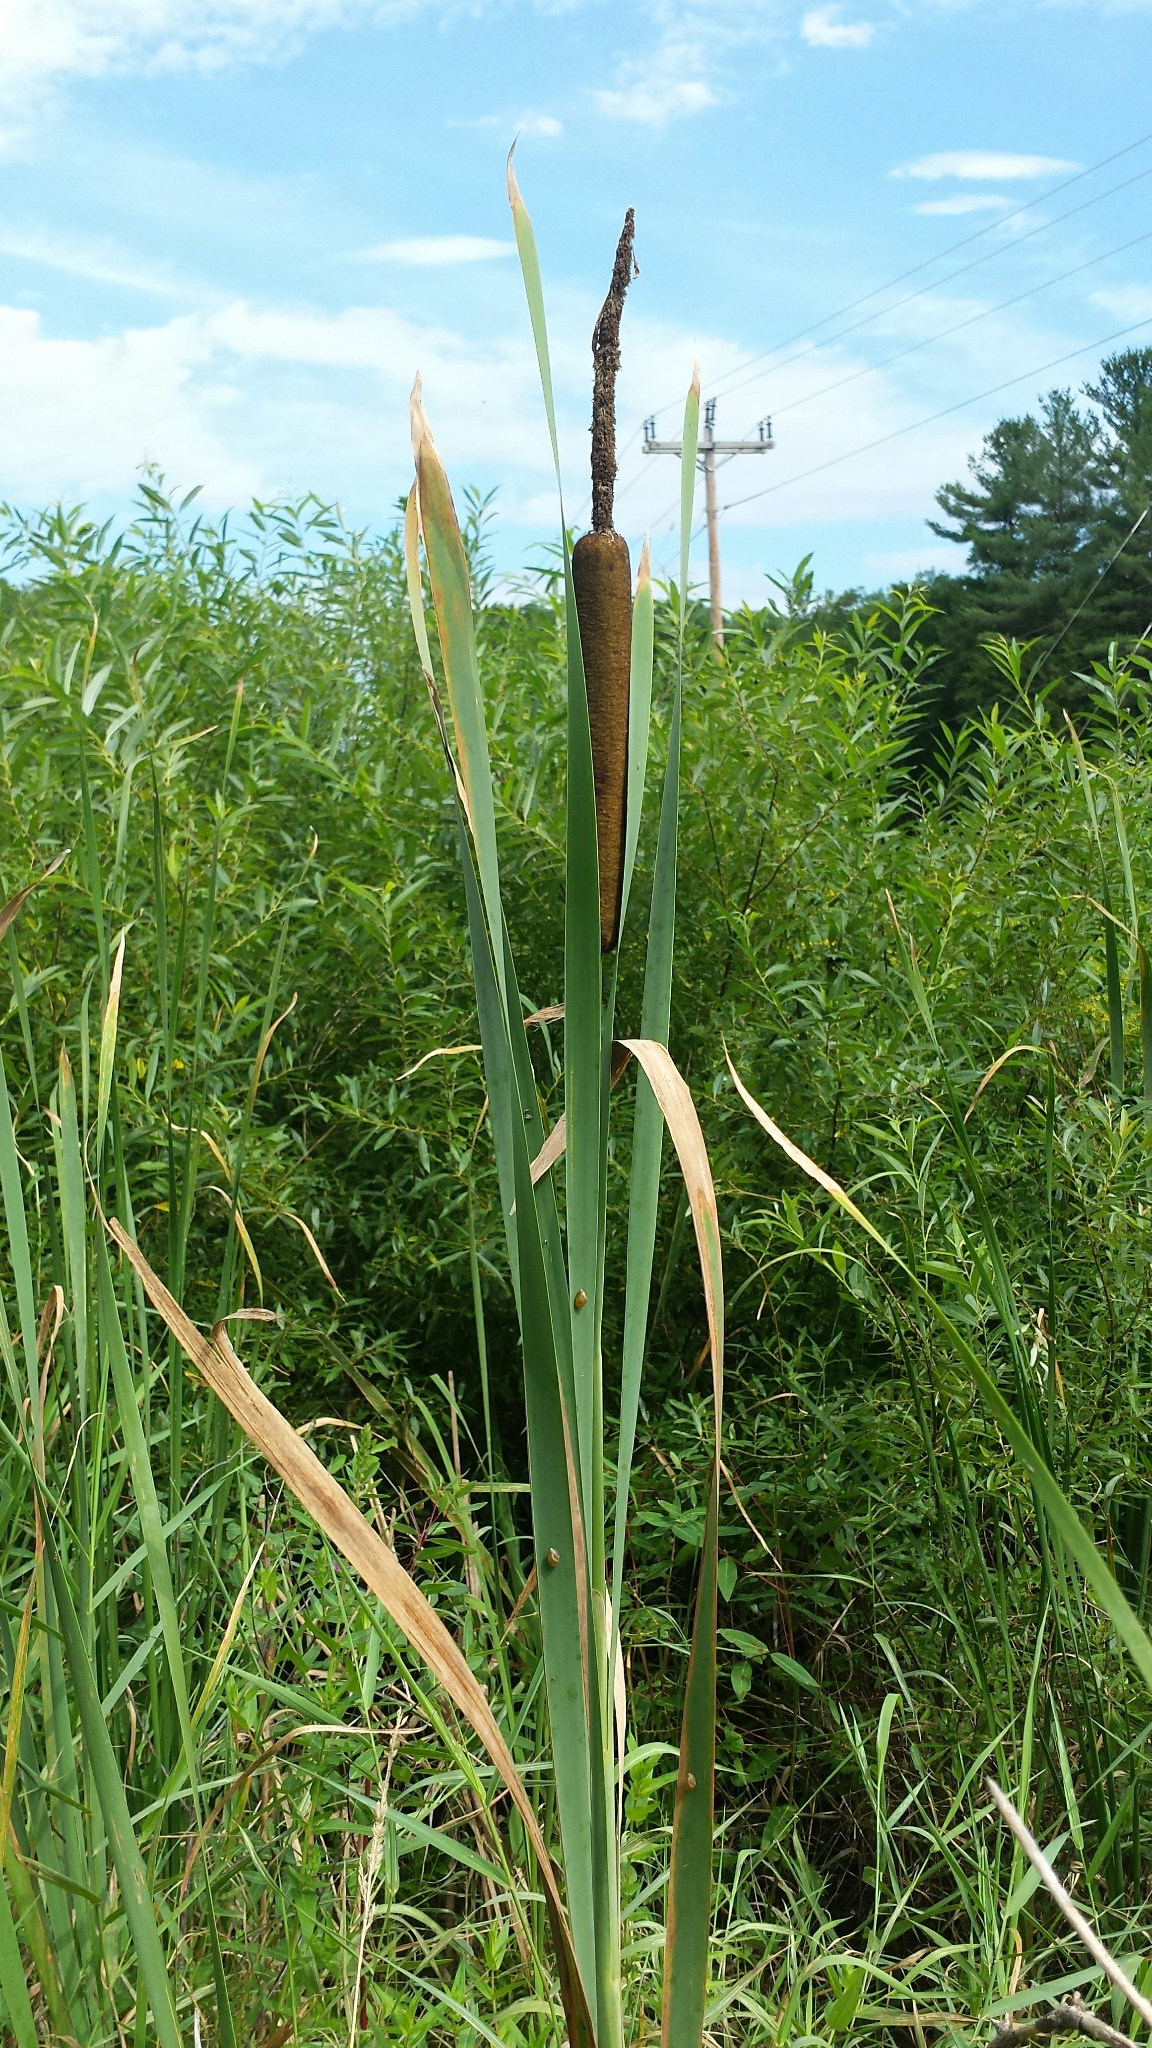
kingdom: Plantae
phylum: Tracheophyta
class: Liliopsida
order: Poales
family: Typhaceae
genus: Typha
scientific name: Typha latifolia
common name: Broadleaf cattail
